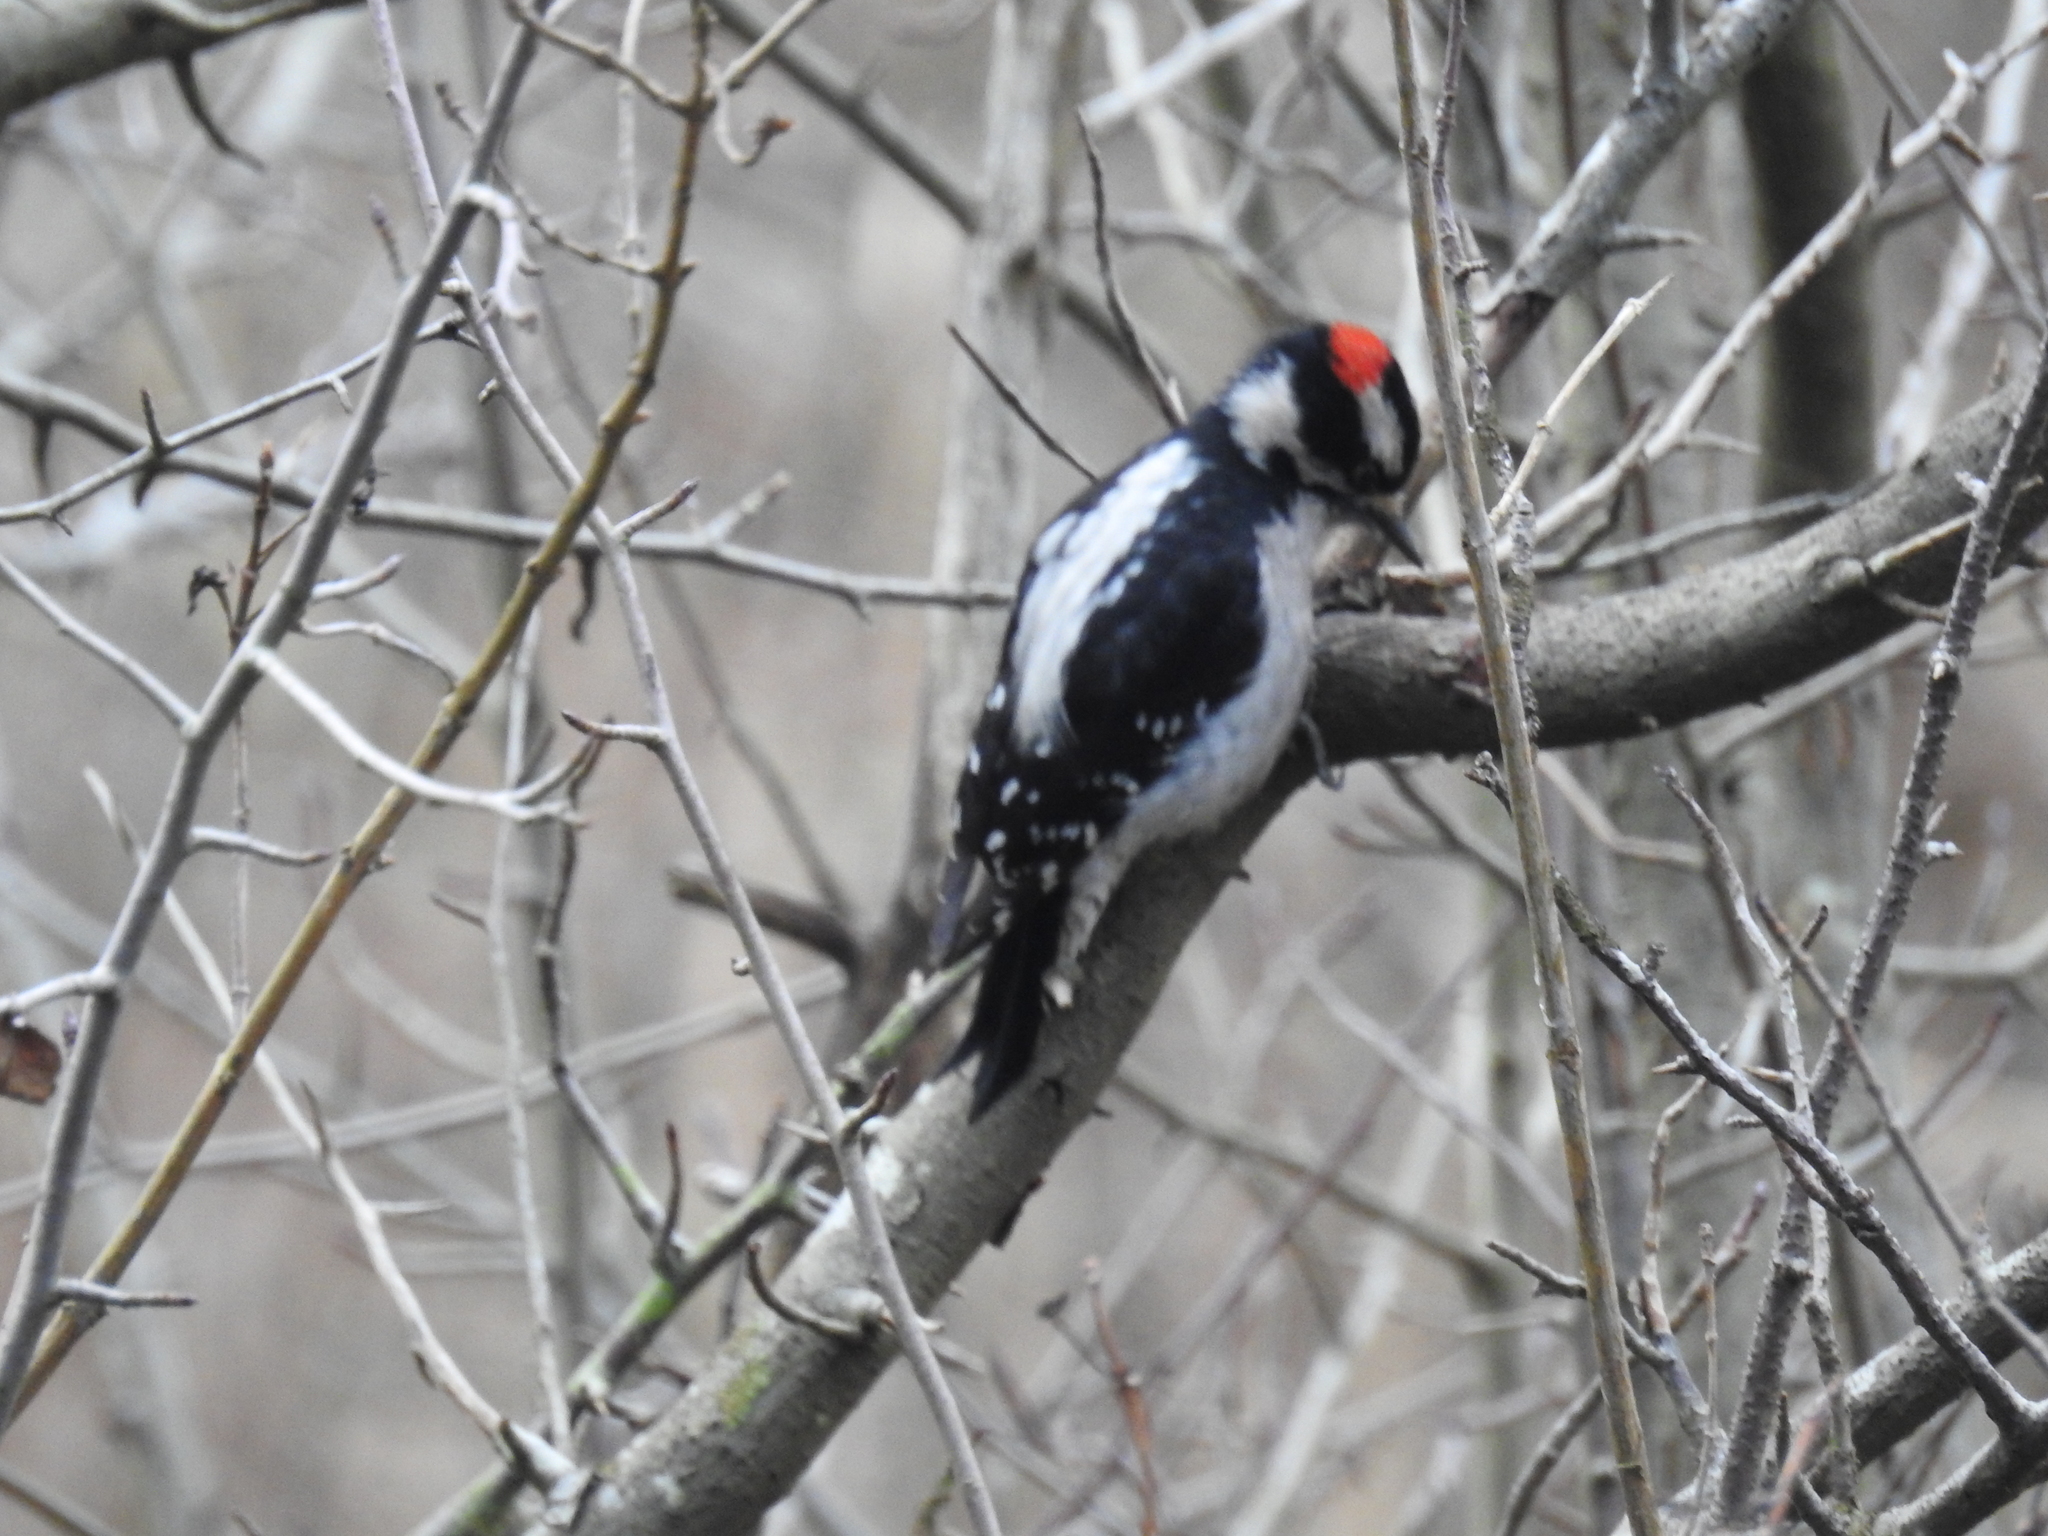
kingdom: Animalia
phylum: Chordata
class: Aves
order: Piciformes
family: Picidae
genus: Dryobates
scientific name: Dryobates pubescens
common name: Downy woodpecker
